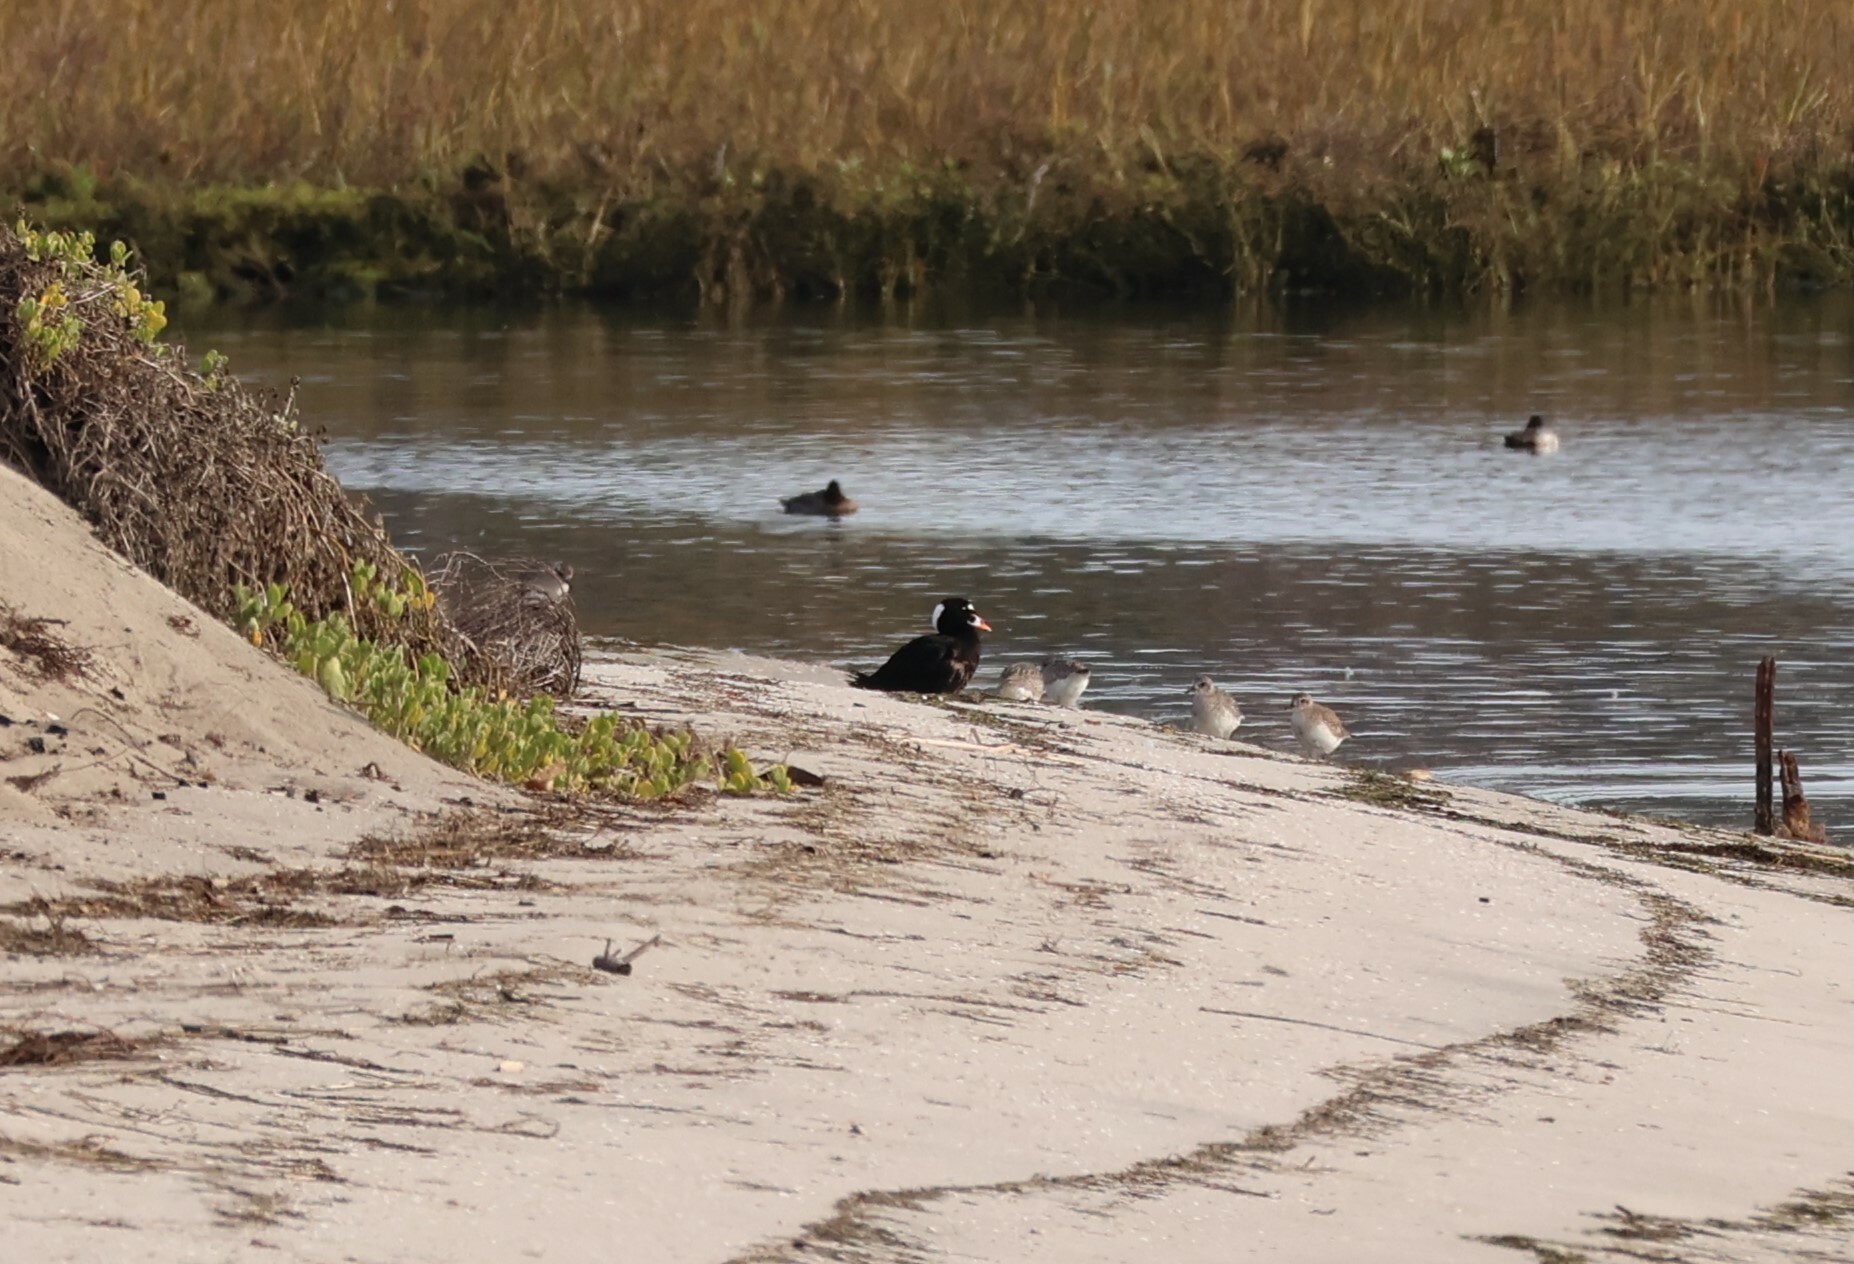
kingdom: Animalia
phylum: Chordata
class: Aves
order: Anseriformes
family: Anatidae
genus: Melanitta
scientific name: Melanitta perspicillata
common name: Surf scoter
